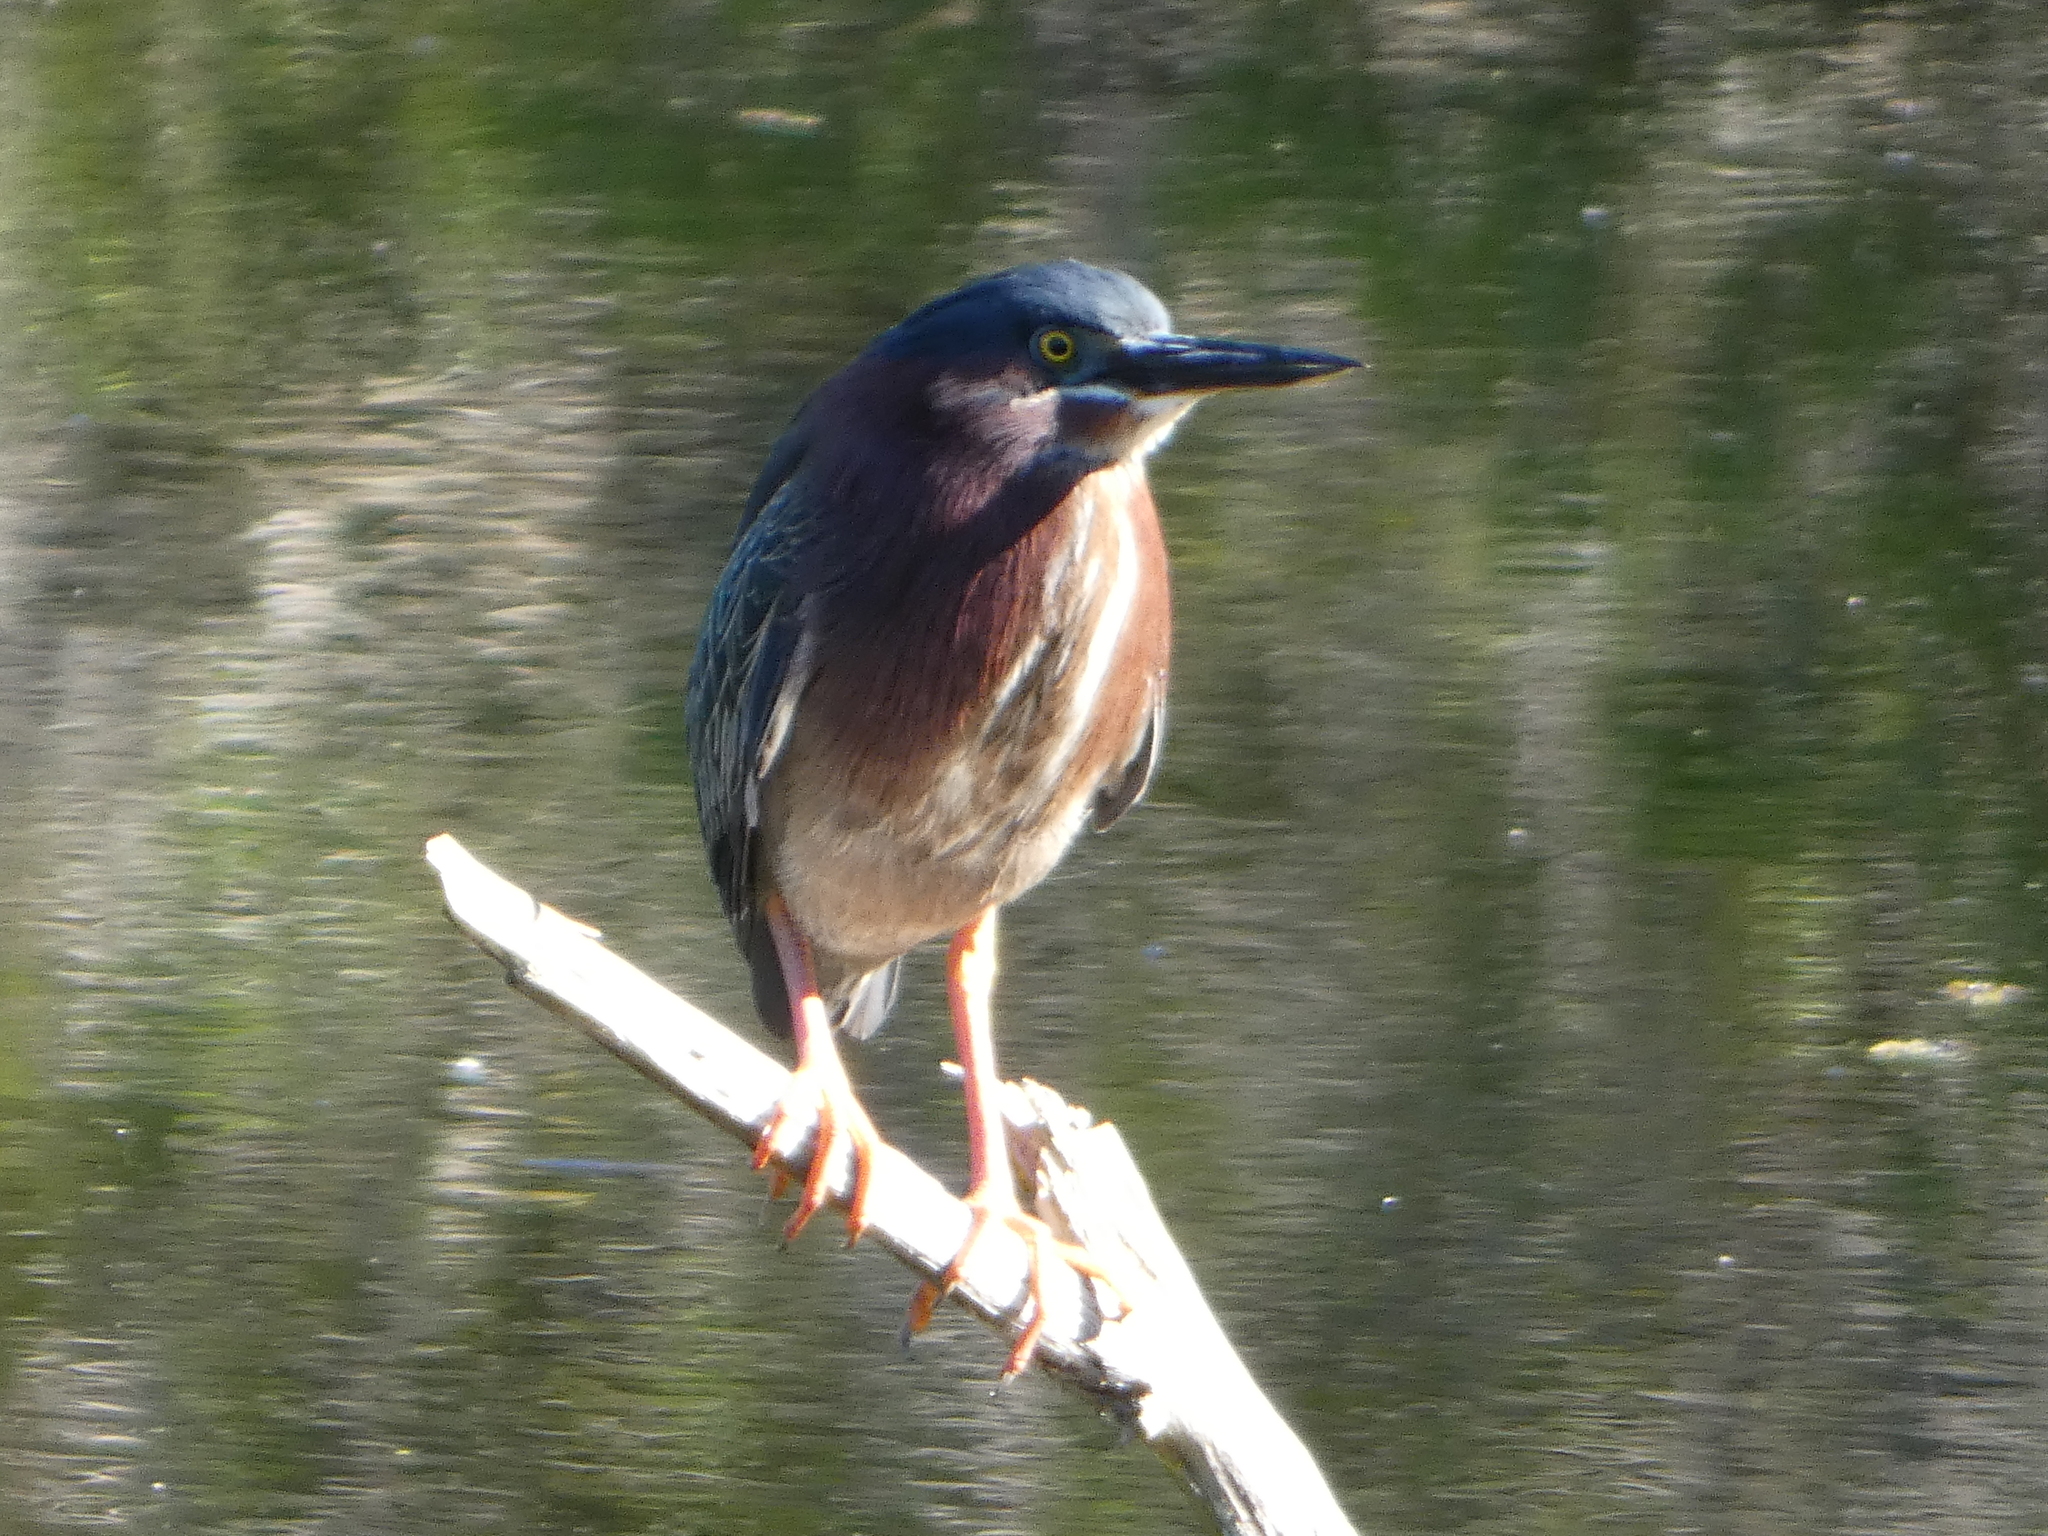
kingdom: Animalia
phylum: Chordata
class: Aves
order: Pelecaniformes
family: Ardeidae
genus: Butorides
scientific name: Butorides virescens
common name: Green heron
